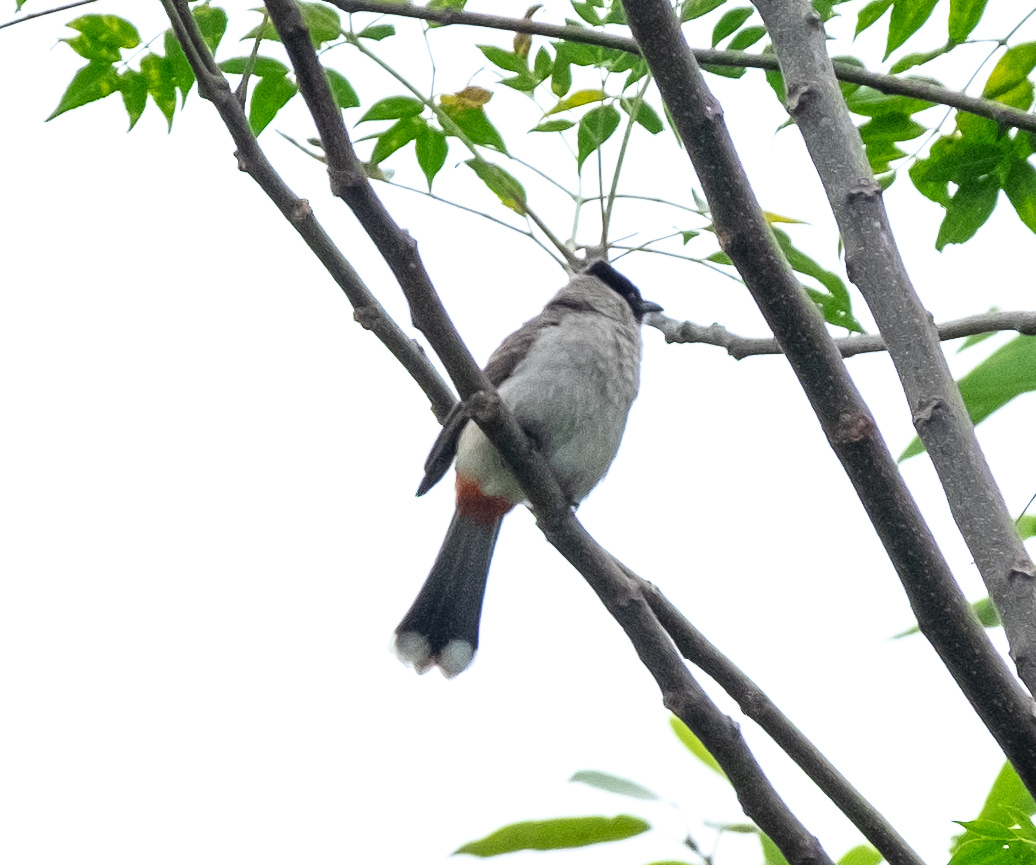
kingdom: Animalia
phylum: Chordata
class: Aves
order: Passeriformes
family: Pycnonotidae
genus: Pycnonotus
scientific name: Pycnonotus aurigaster
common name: Sooty-headed bulbul
